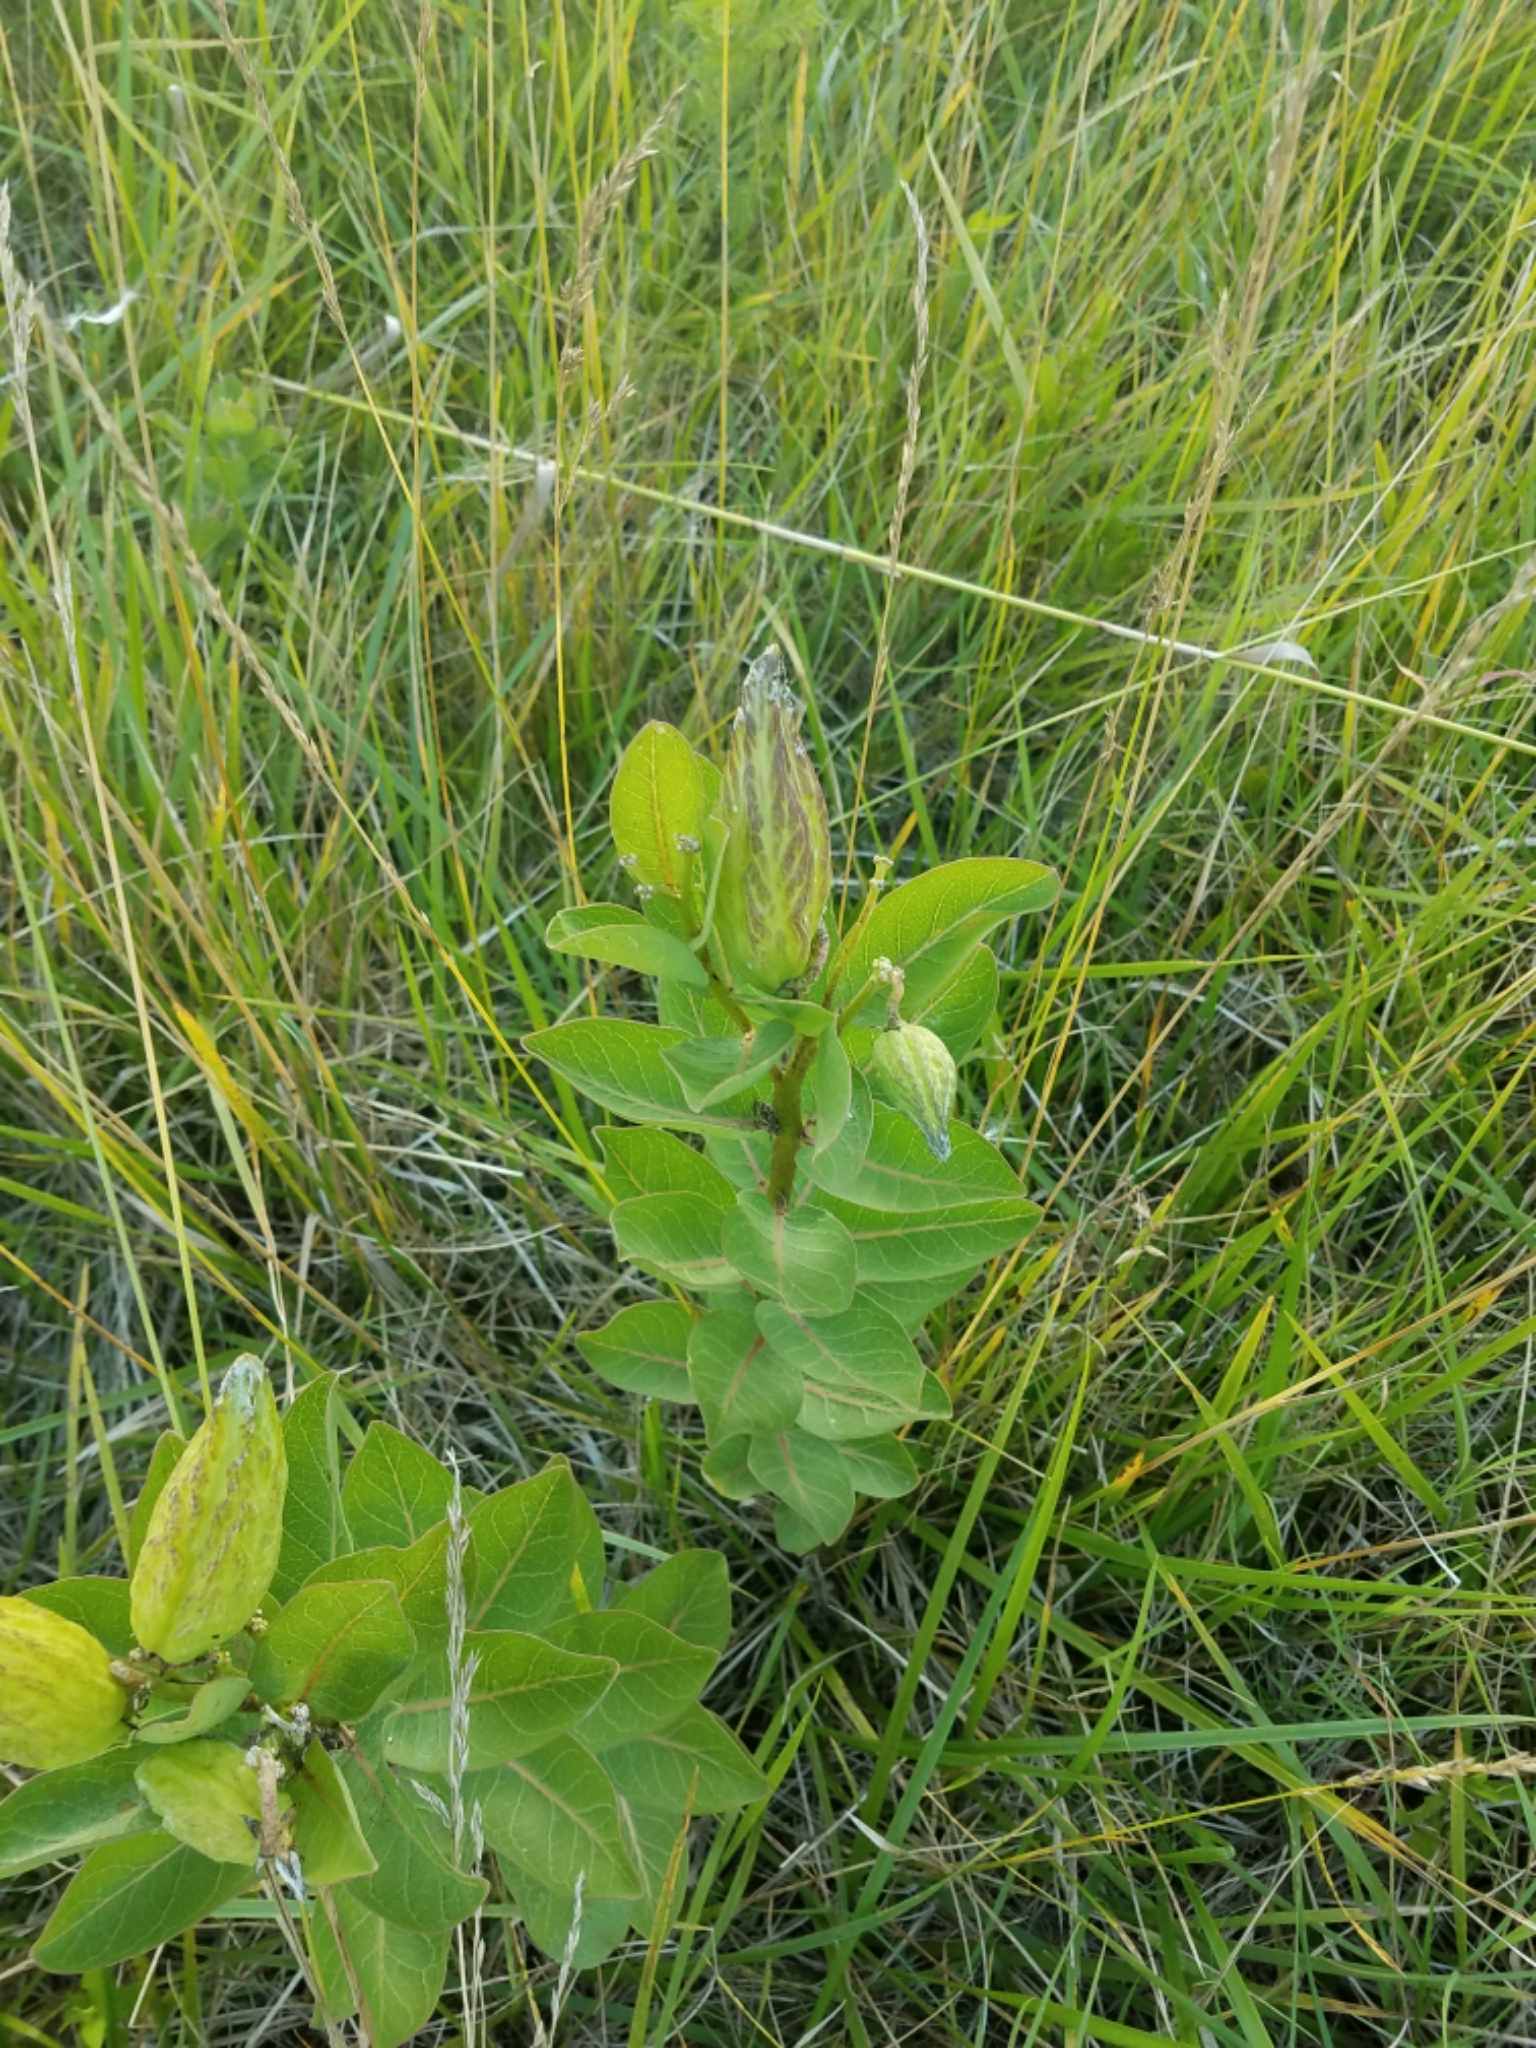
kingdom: Plantae
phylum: Tracheophyta
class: Magnoliopsida
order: Gentianales
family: Apocynaceae
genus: Asclepias
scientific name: Asclepias viridis
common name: Antelope-horns
